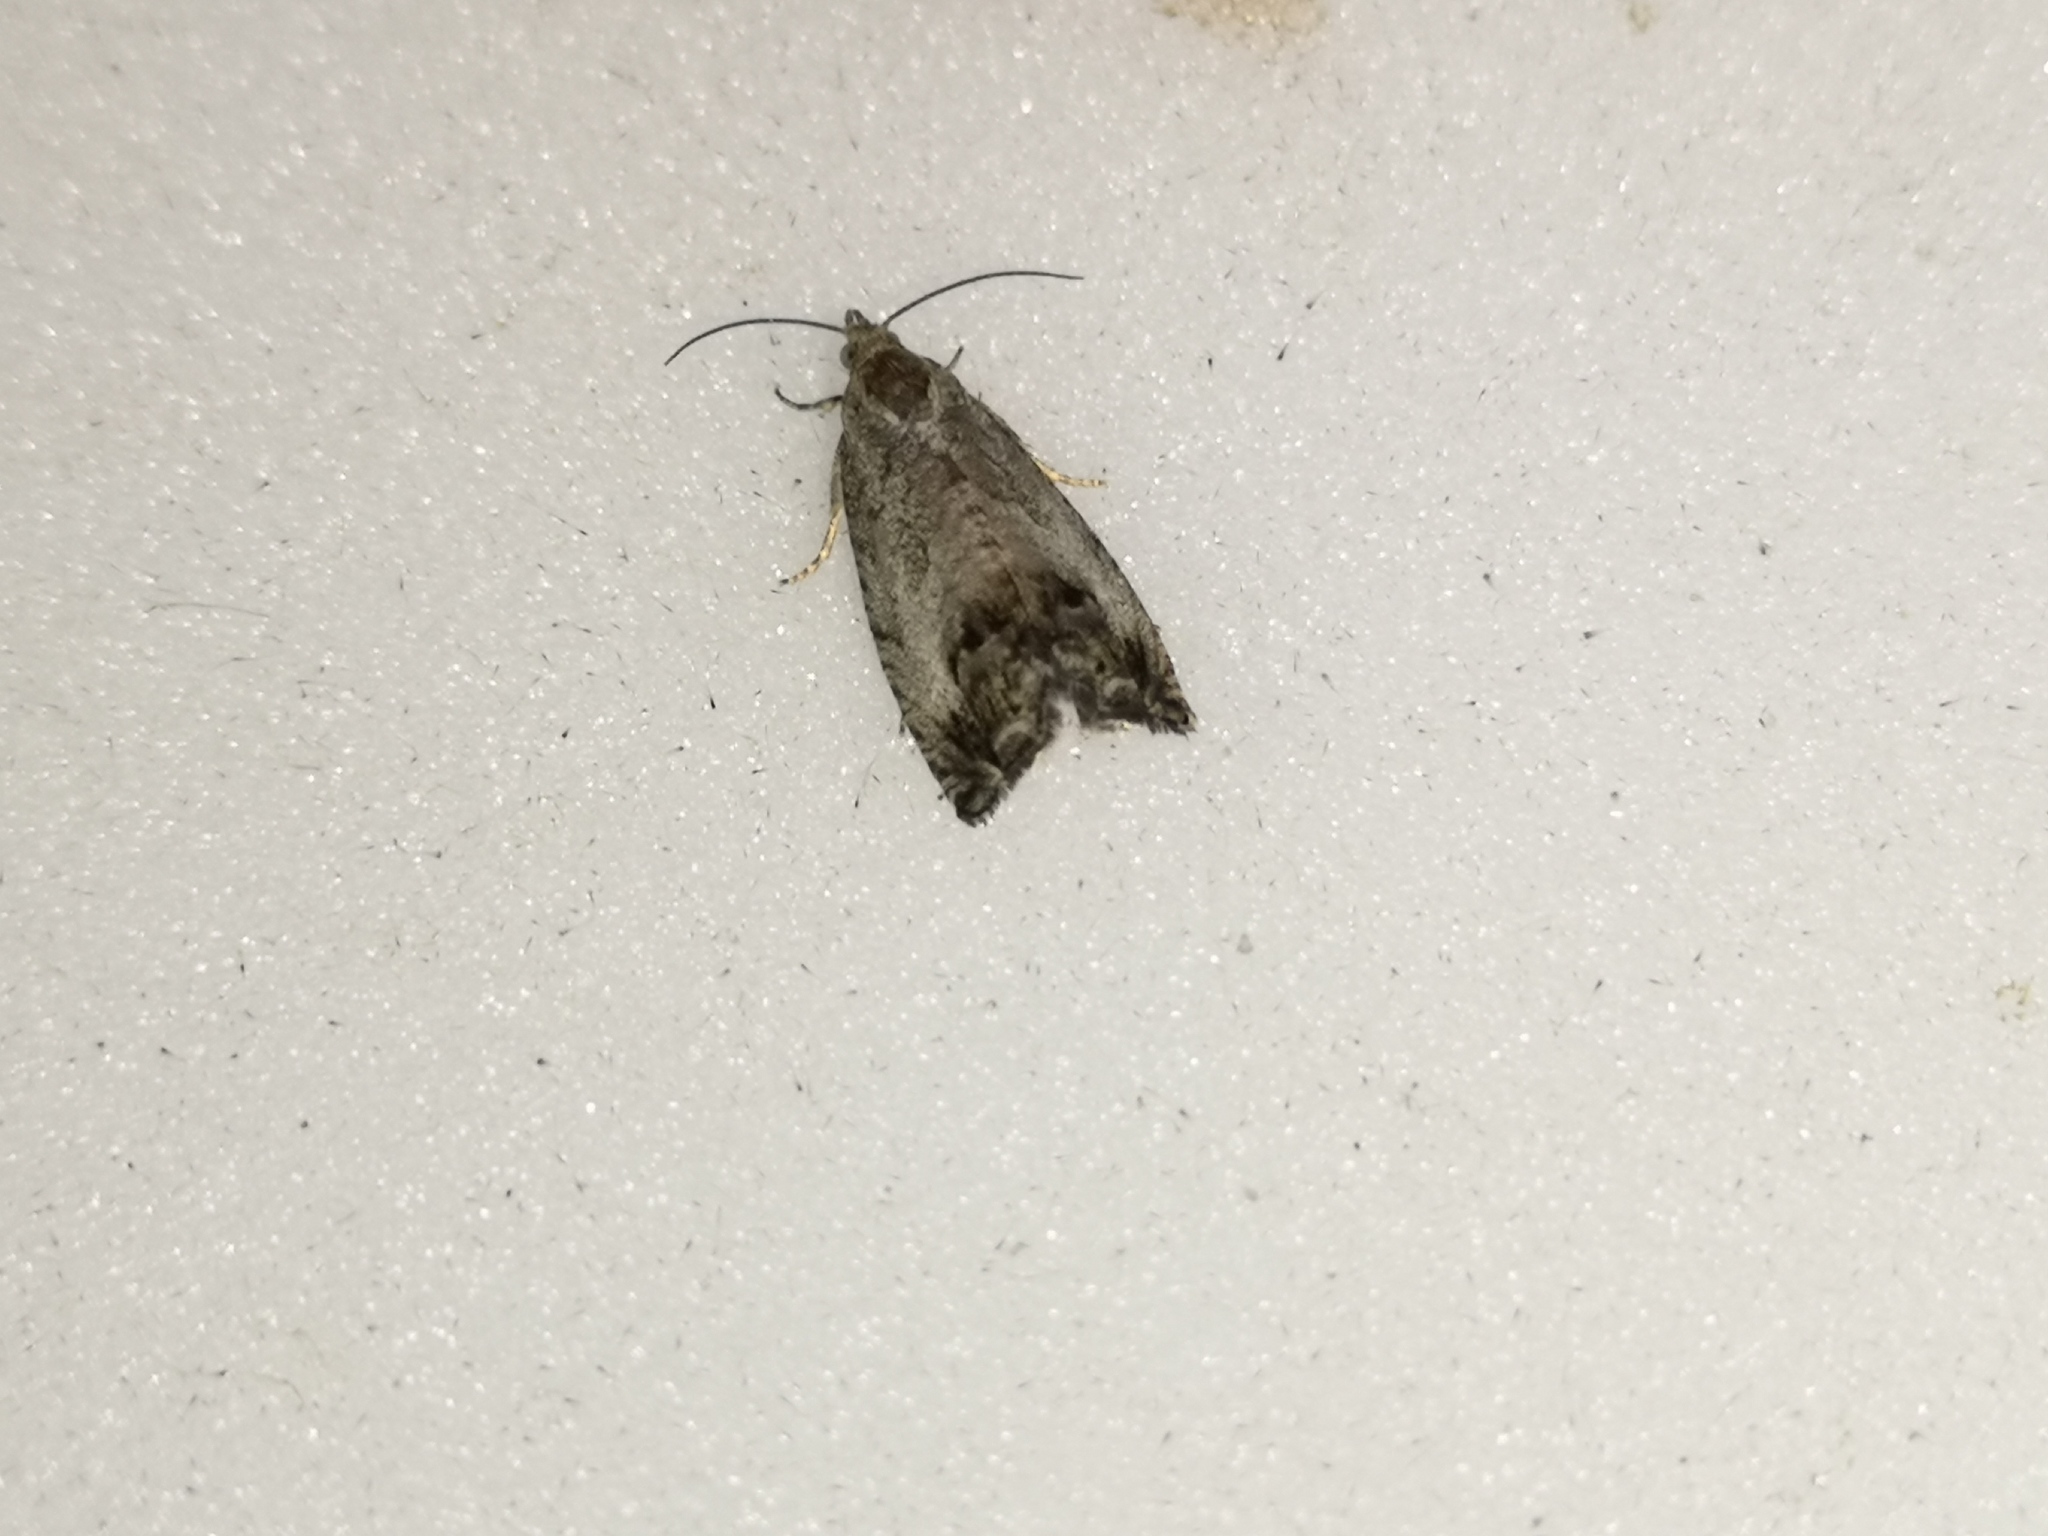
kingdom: Animalia
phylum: Arthropoda
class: Insecta
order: Lepidoptera
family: Tortricidae
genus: Cydia
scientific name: Cydia splendana
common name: De: kastanienwickler, eichenwickler es: oruga de la castaña fr: carpocapse des châtaignes it: cidia o tortrice tardiva delle castagne pt: bichado das castanhas gb: acorn moth, chestnut fruit tortrix
